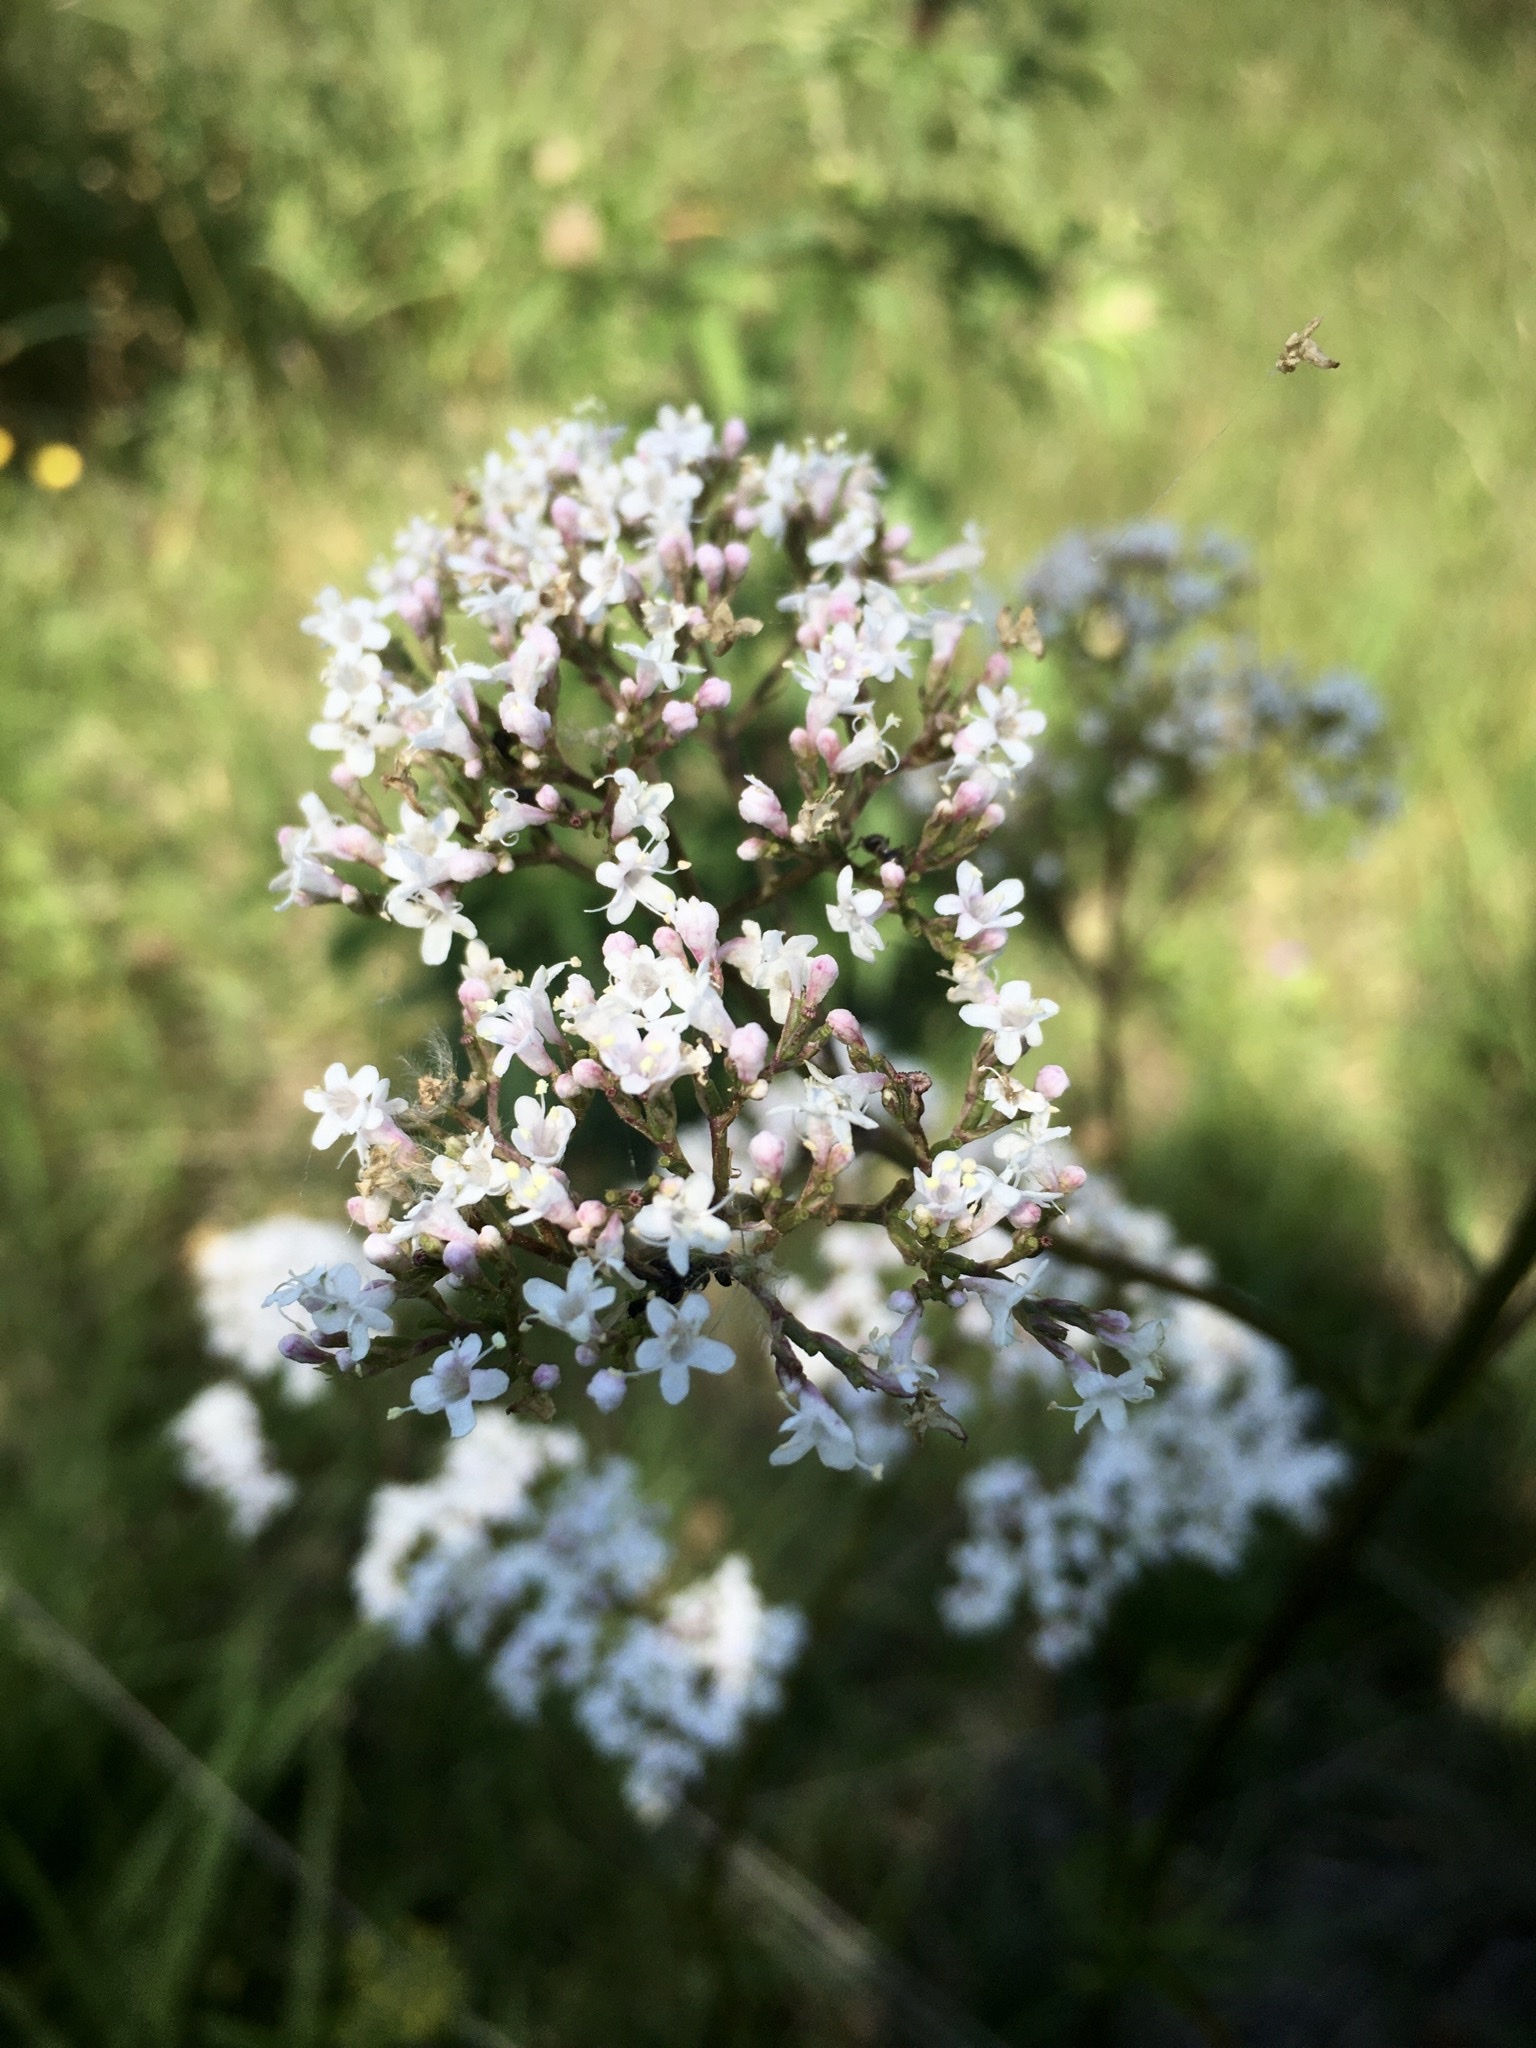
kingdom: Plantae
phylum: Tracheophyta
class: Magnoliopsida
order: Dipsacales
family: Caprifoliaceae
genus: Valeriana
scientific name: Valeriana officinalis
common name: Common valerian
